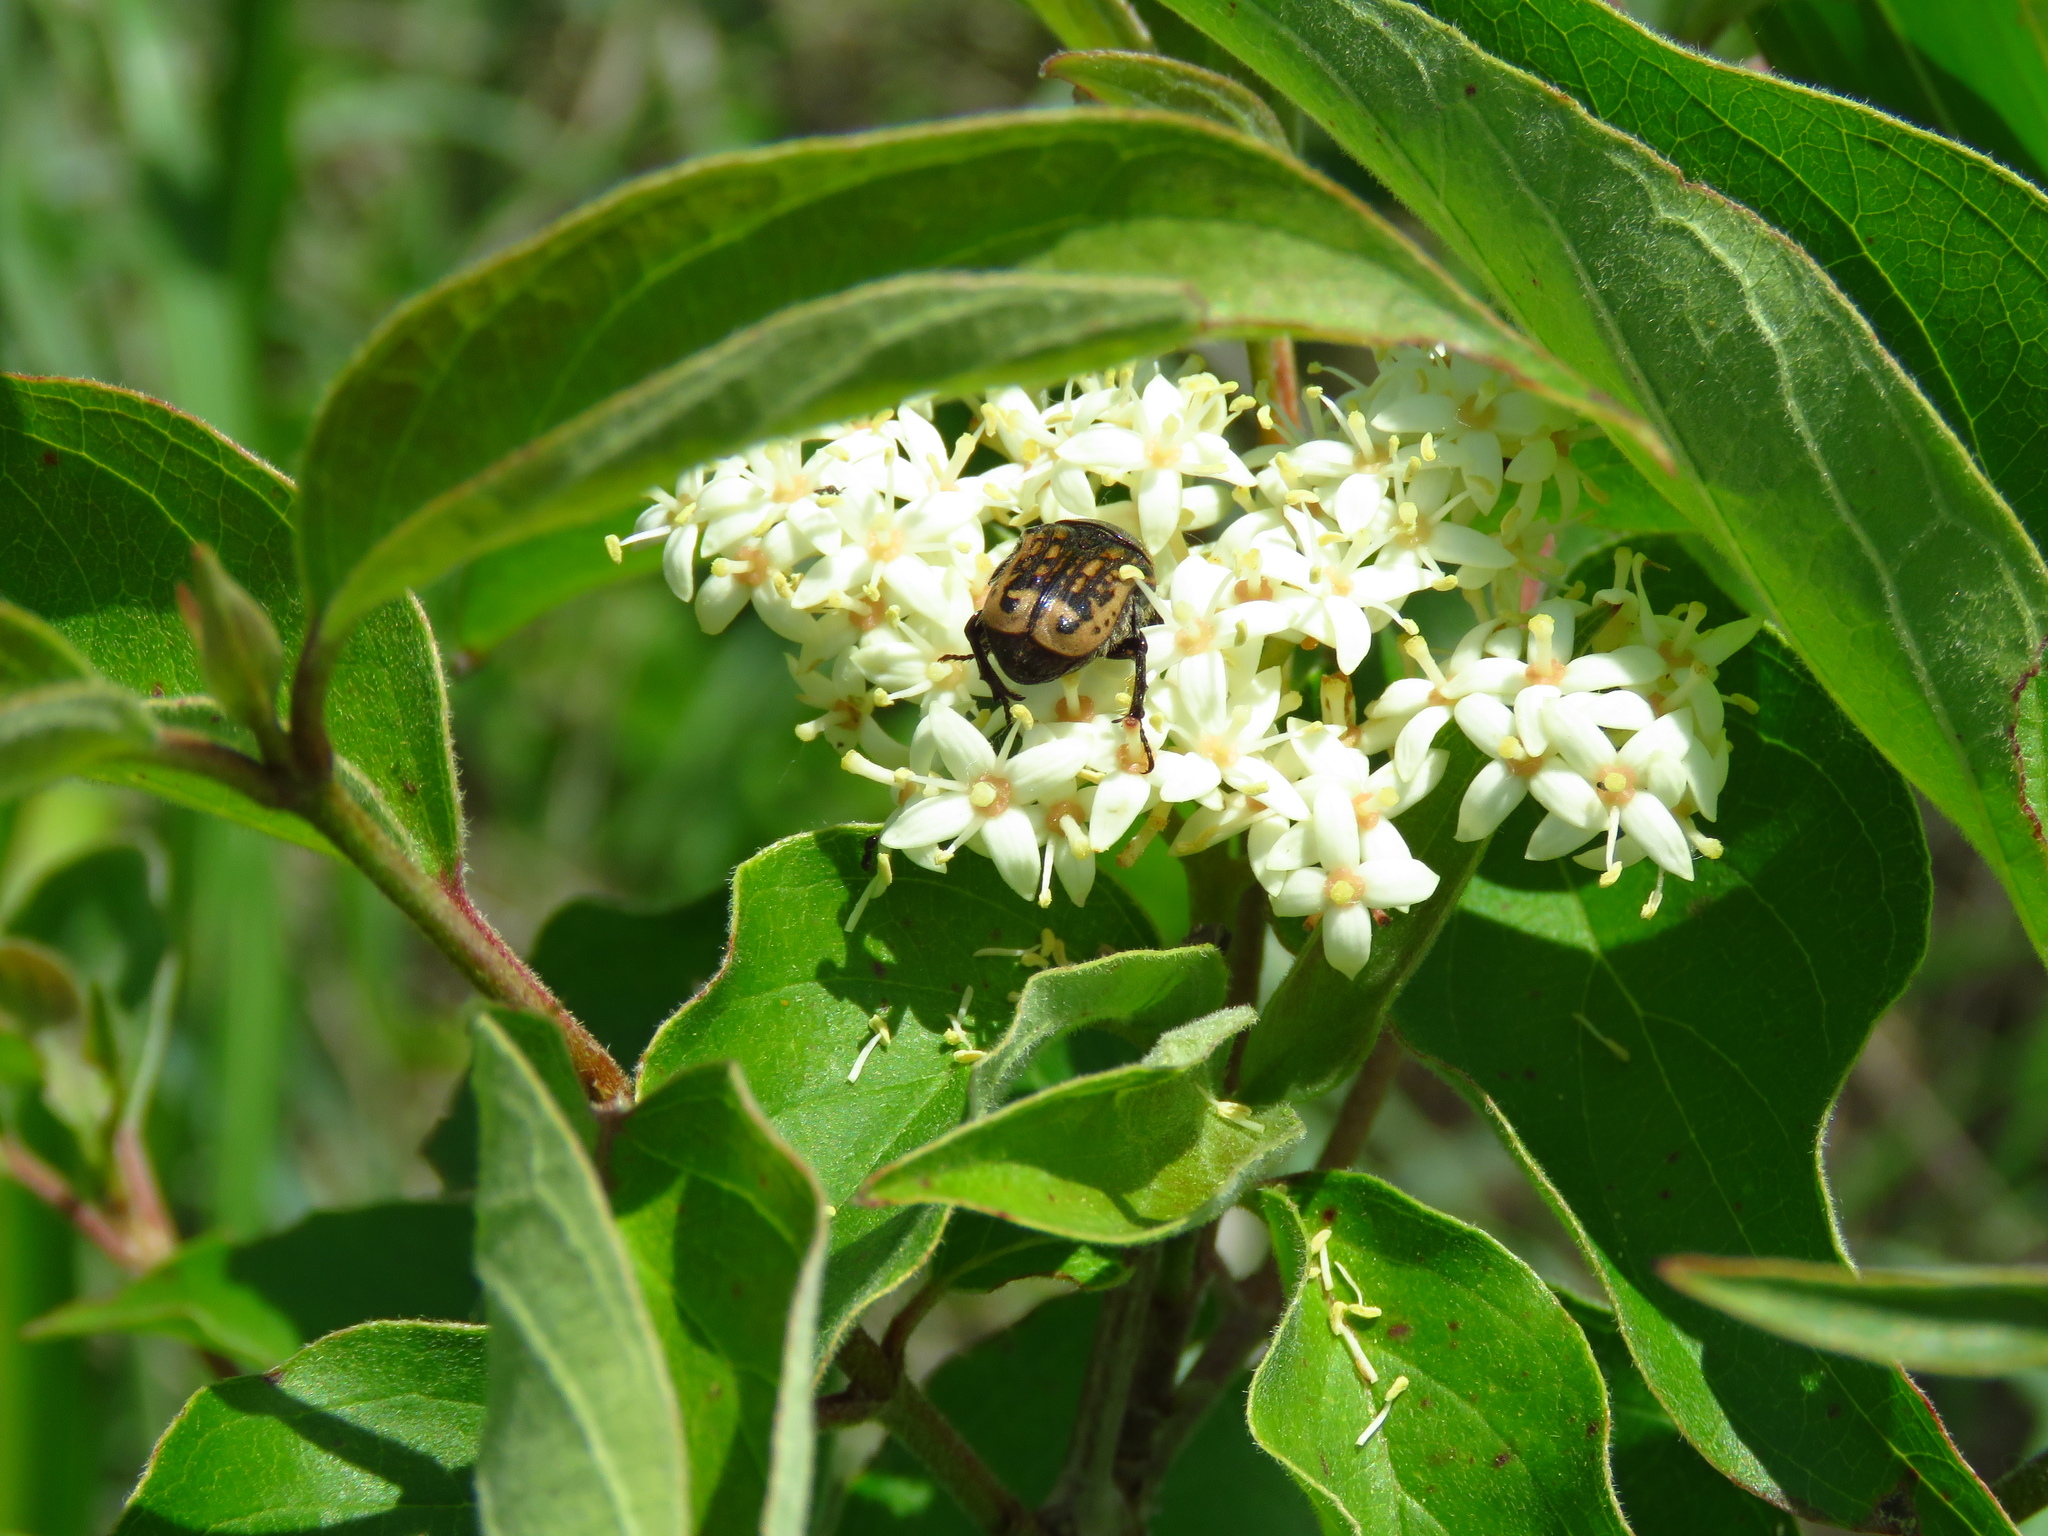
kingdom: Plantae
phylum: Tracheophyta
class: Magnoliopsida
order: Cornales
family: Cornaceae
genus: Cornus
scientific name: Cornus drummondii
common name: Rough-leaf dogwood
